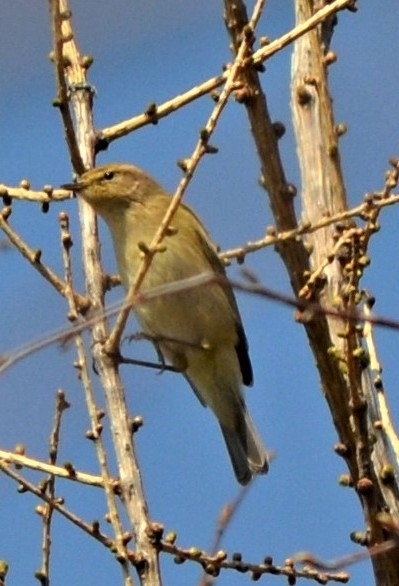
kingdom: Animalia
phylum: Chordata
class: Aves
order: Passeriformes
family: Phylloscopidae
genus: Phylloscopus
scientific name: Phylloscopus collybita
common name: Common chiffchaff
